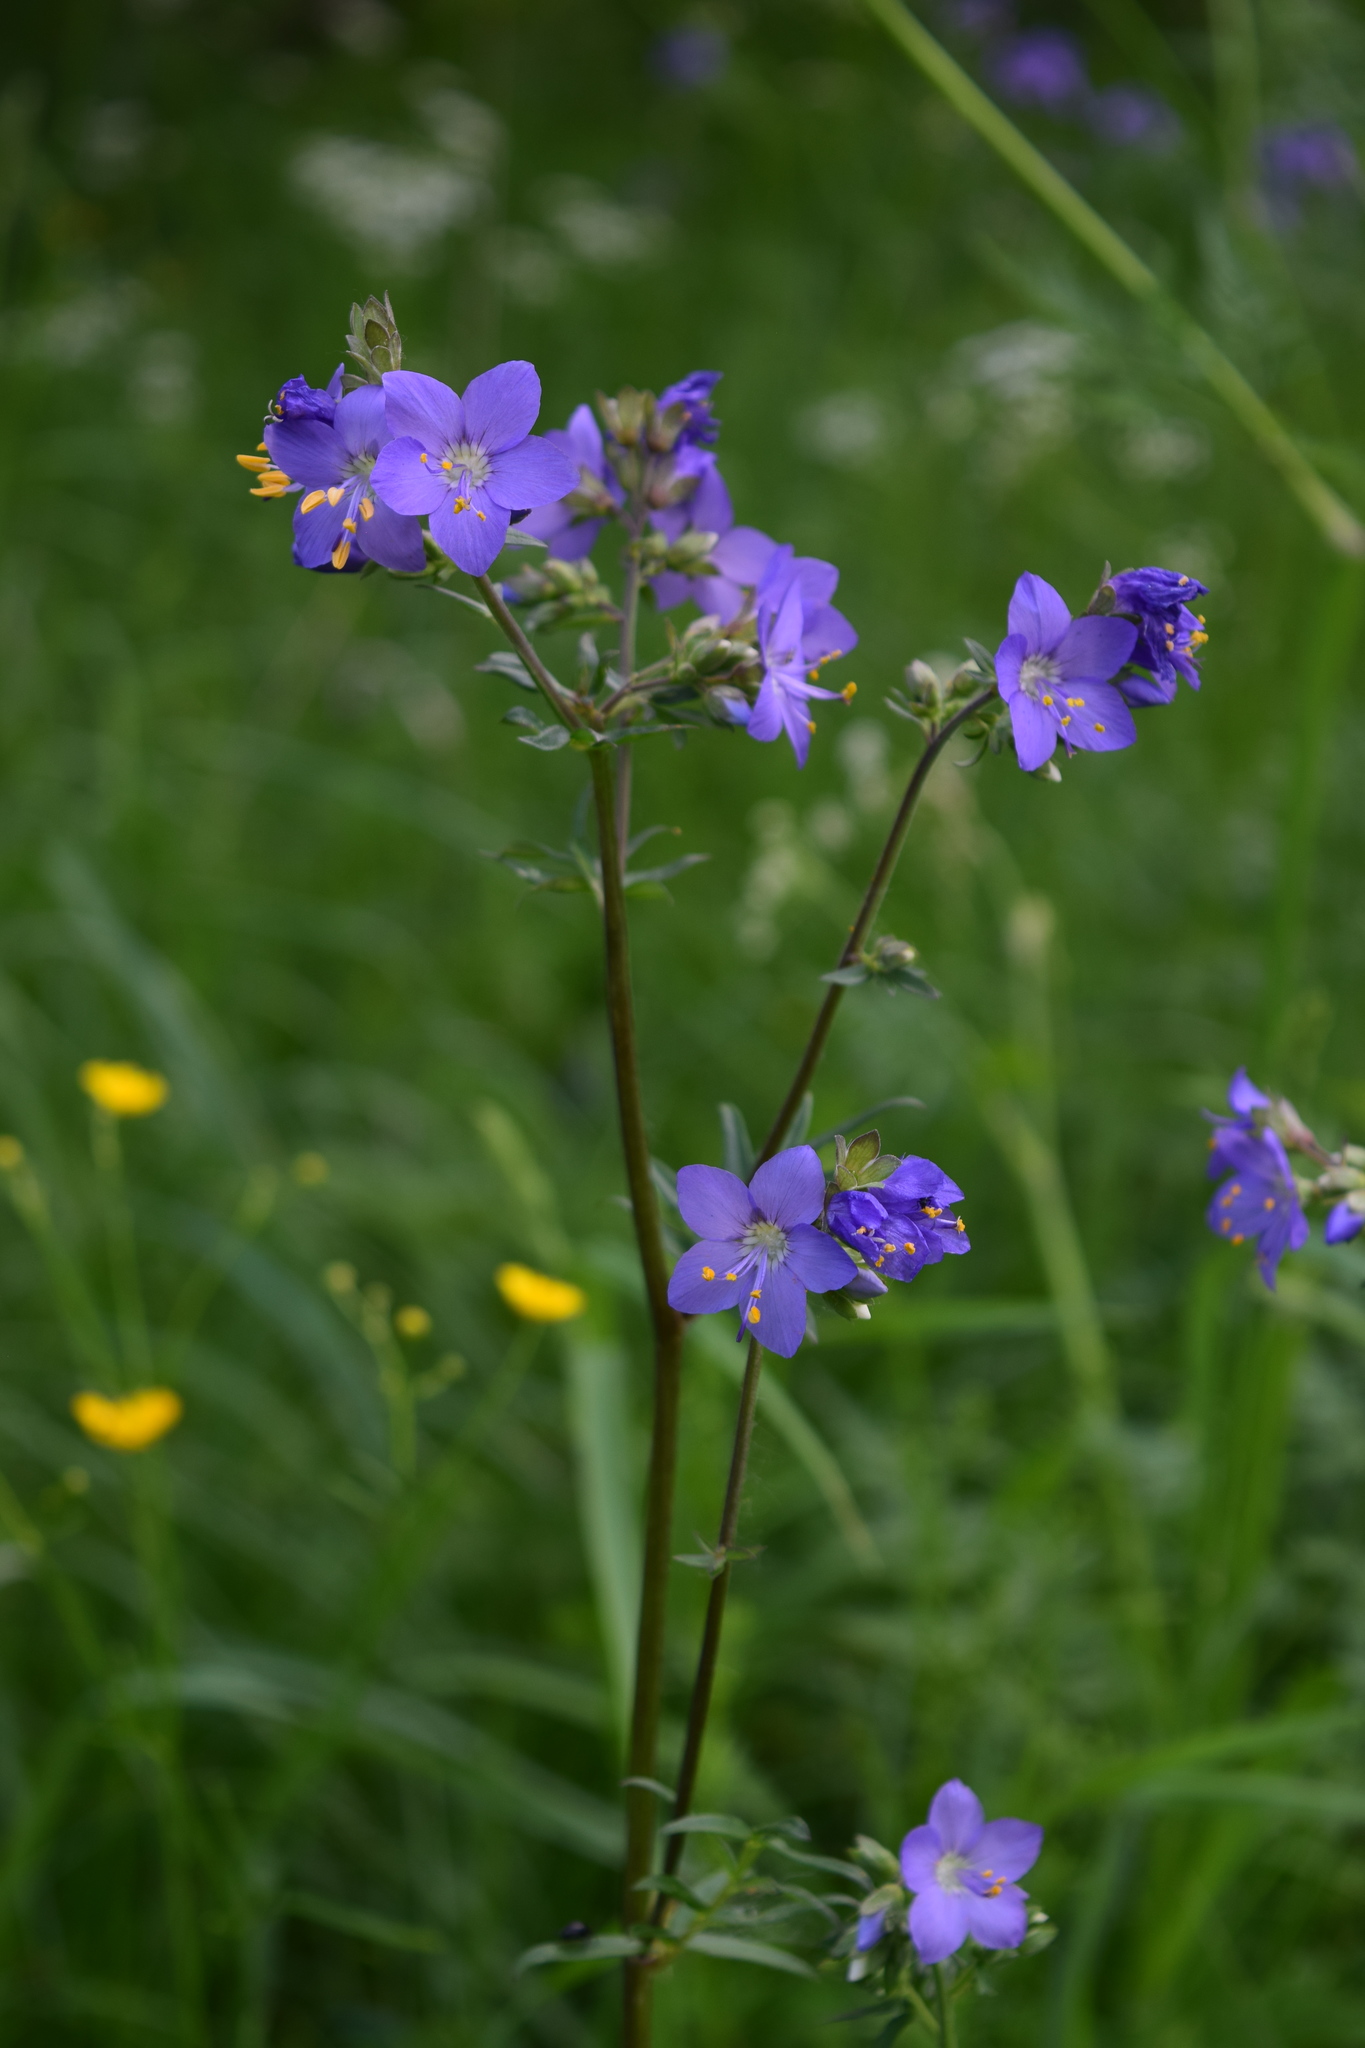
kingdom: Plantae
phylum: Tracheophyta
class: Magnoliopsida
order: Ericales
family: Polemoniaceae
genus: Polemonium
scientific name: Polemonium caeruleum
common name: Jacob's-ladder
